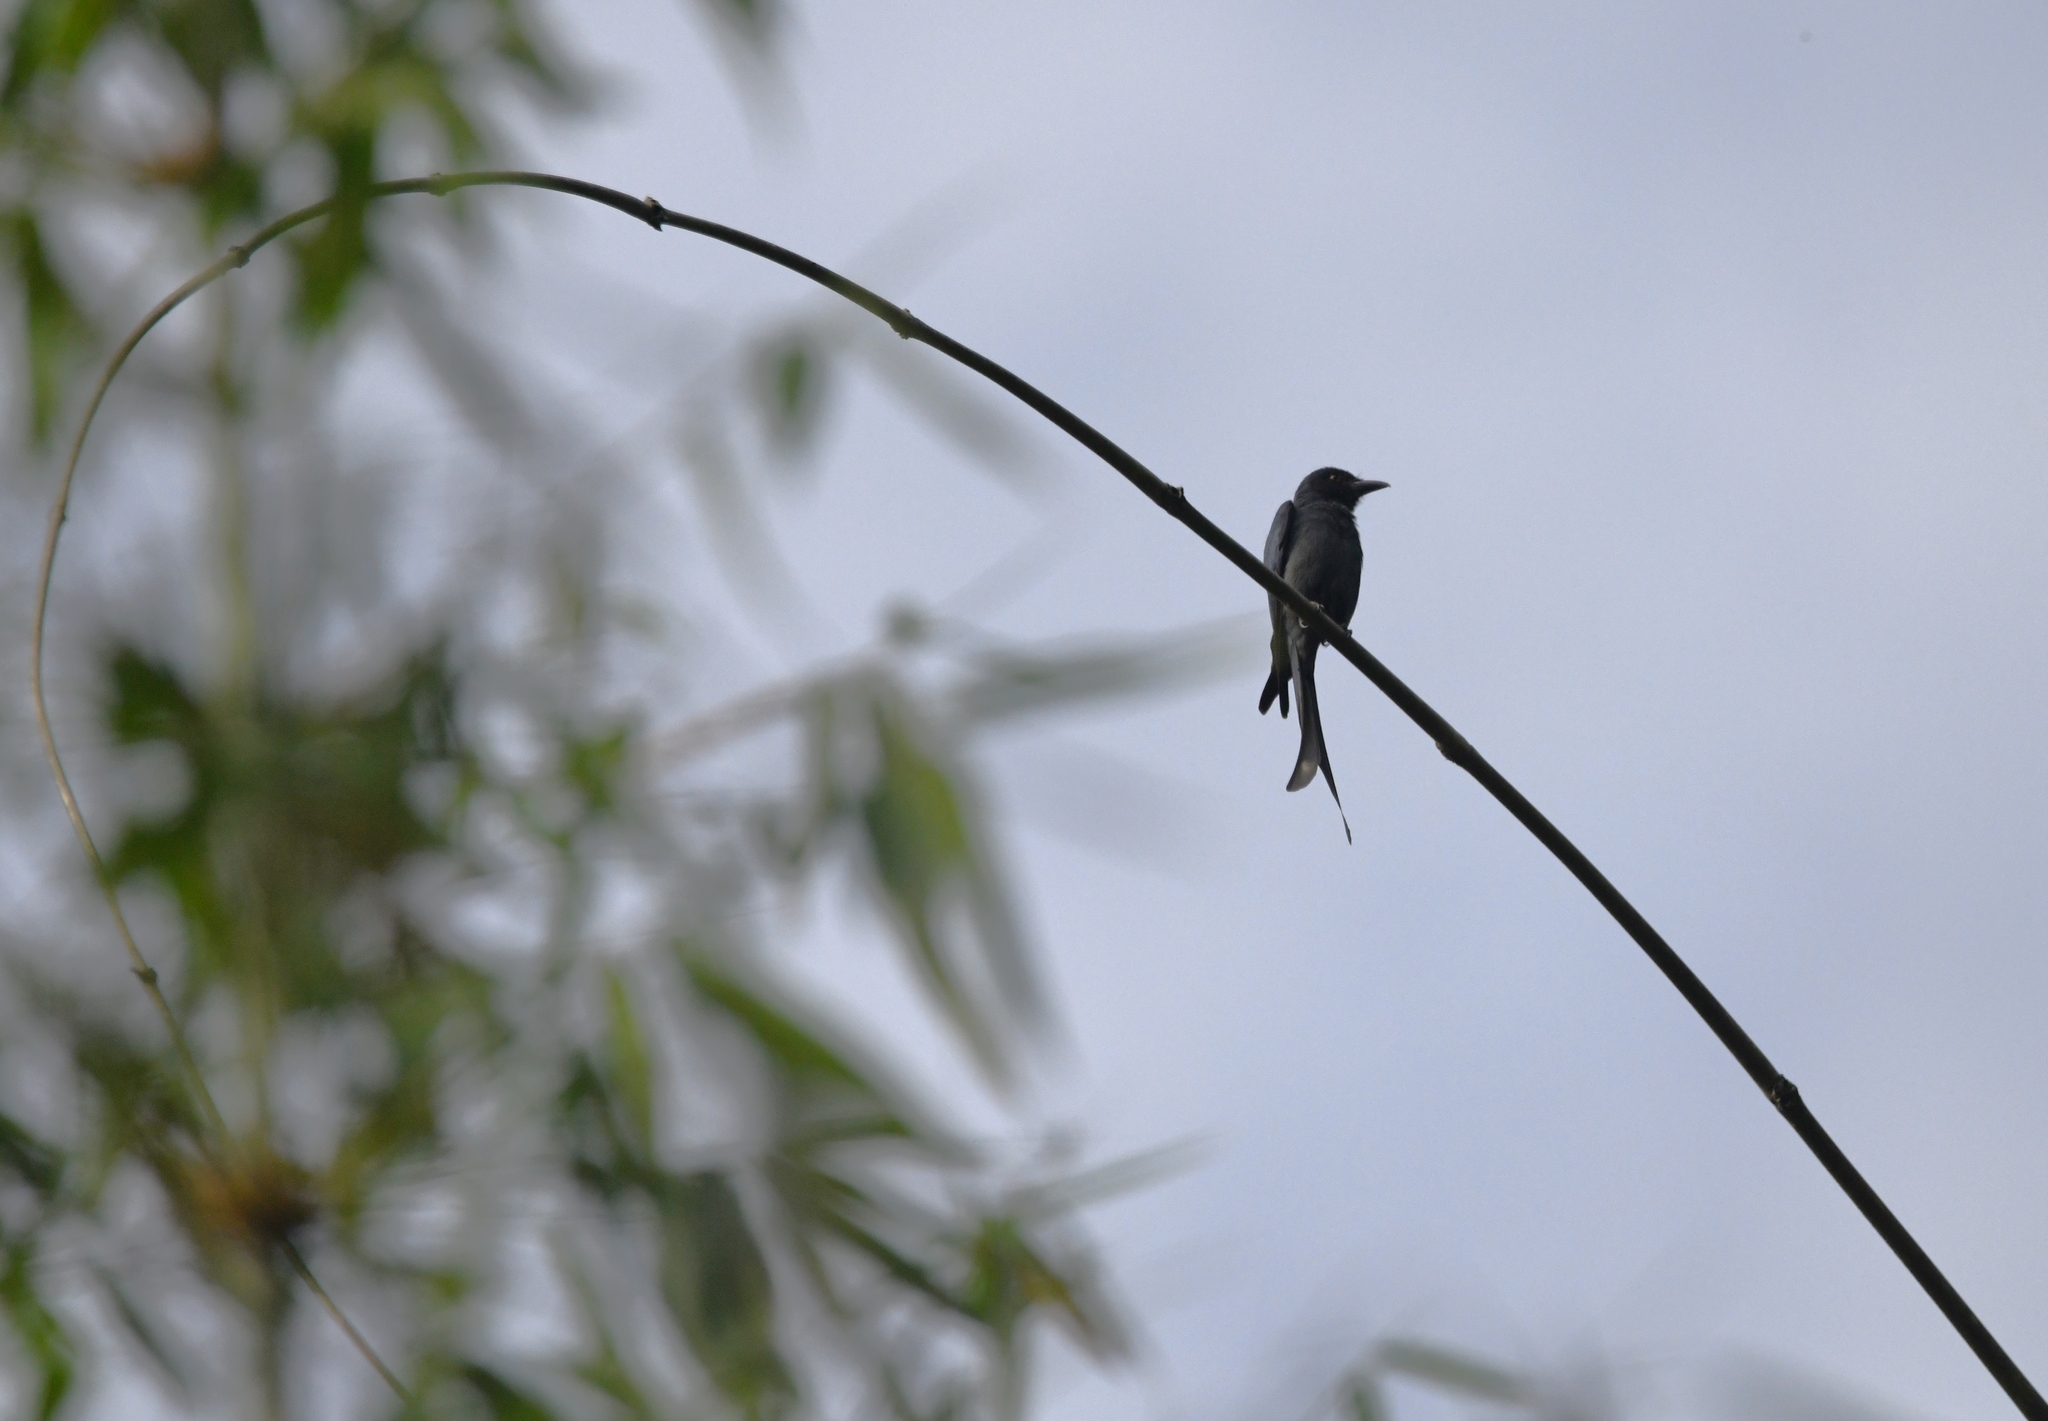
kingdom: Animalia
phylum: Chordata
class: Aves
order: Passeriformes
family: Dicruridae
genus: Dicrurus
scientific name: Dicrurus leucophaeus
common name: Ashy drongo
